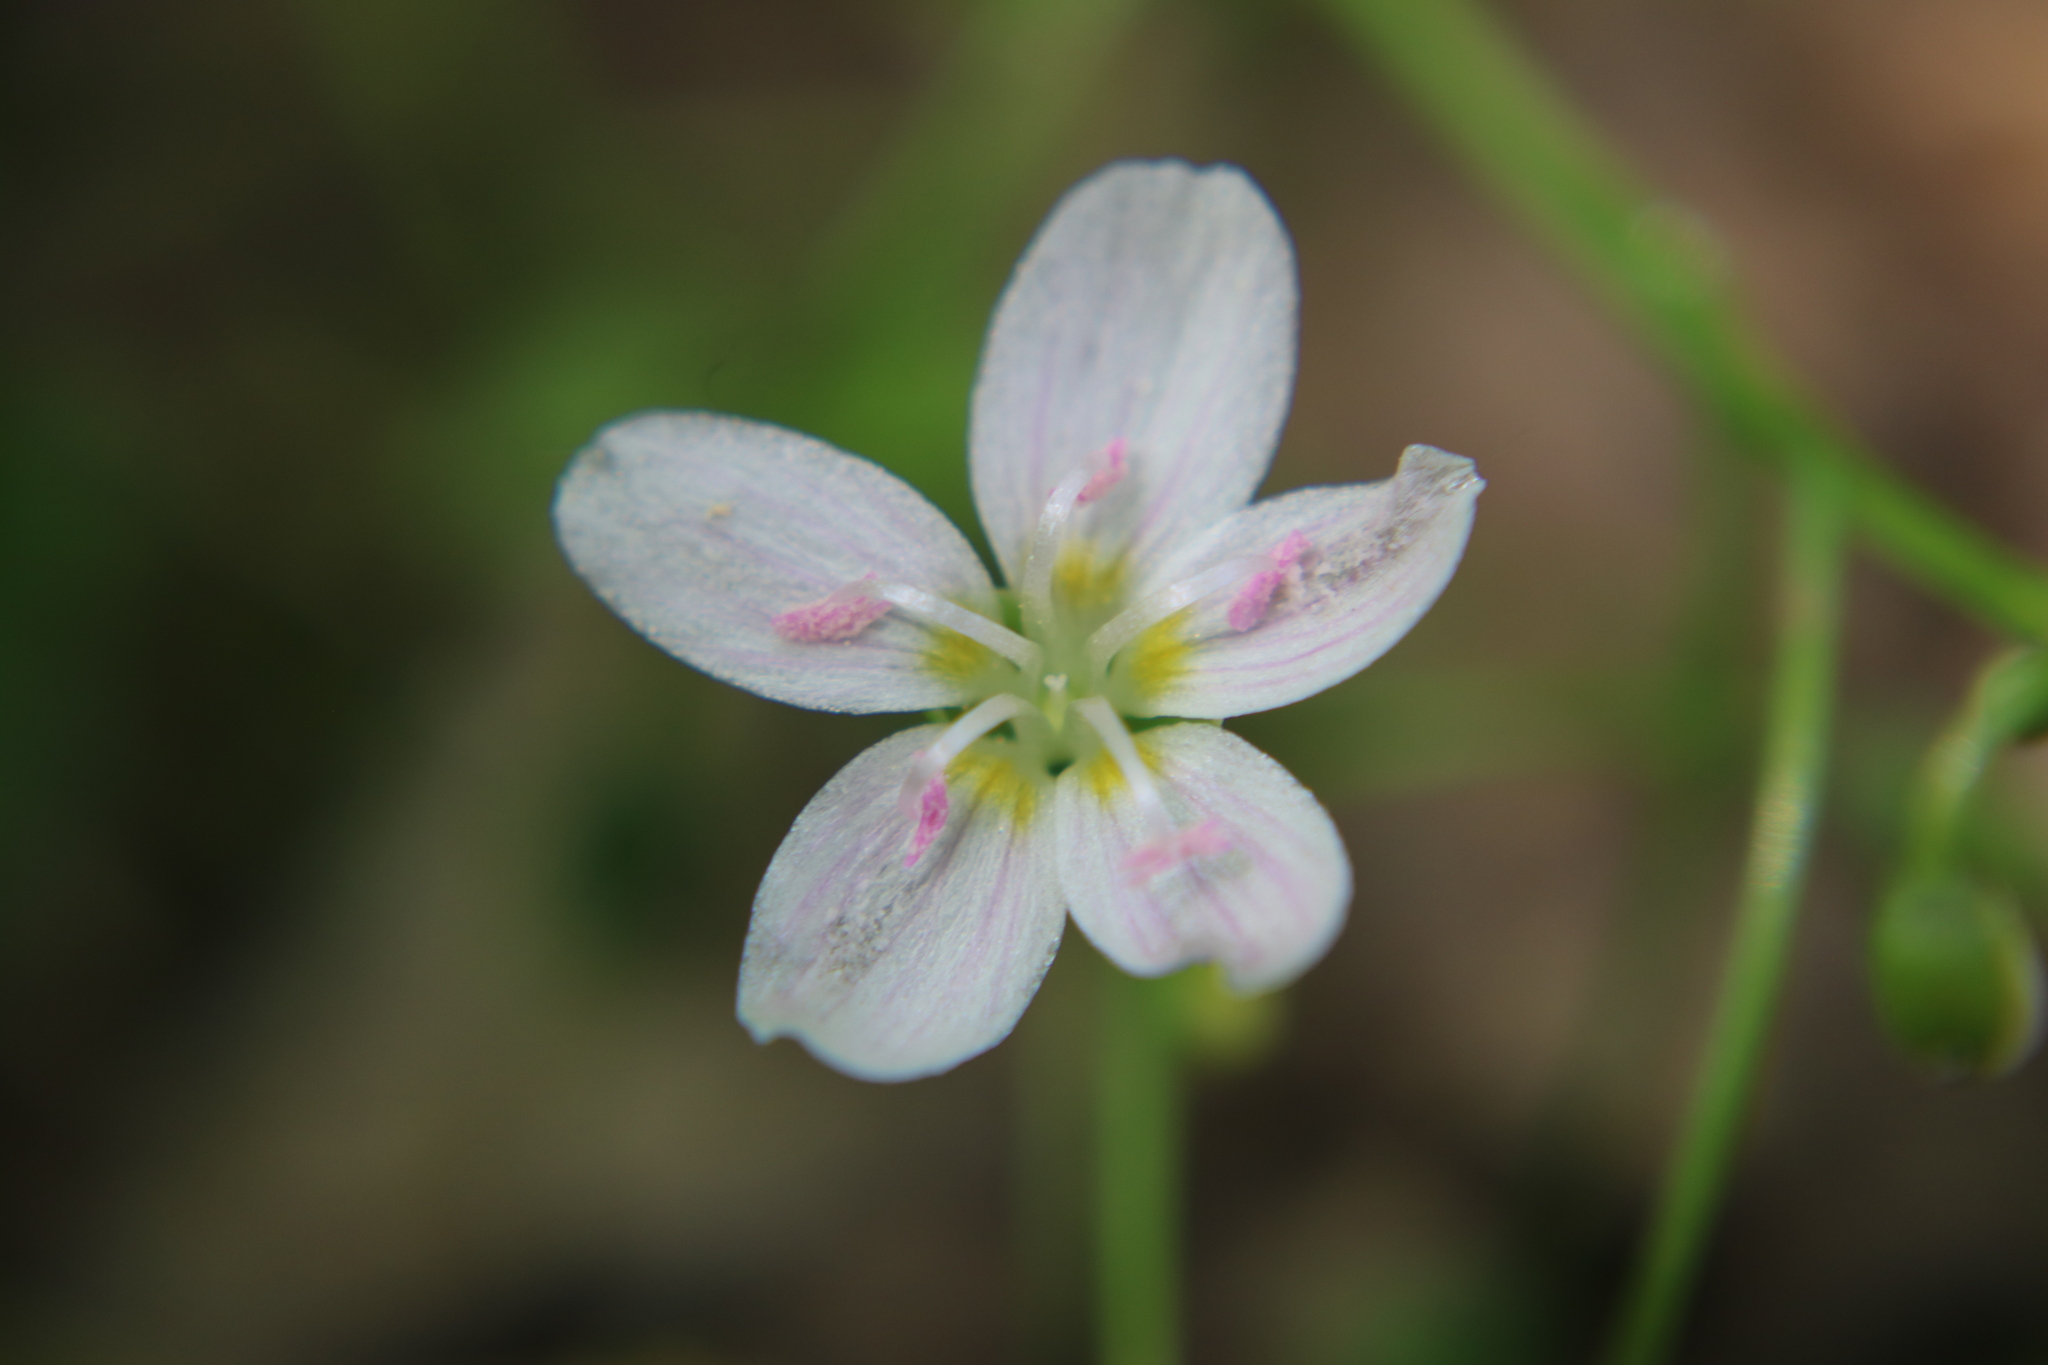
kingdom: Plantae
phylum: Tracheophyta
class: Magnoliopsida
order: Caryophyllales
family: Montiaceae
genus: Claytonia
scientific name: Claytonia virginica
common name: Virginia springbeauty
